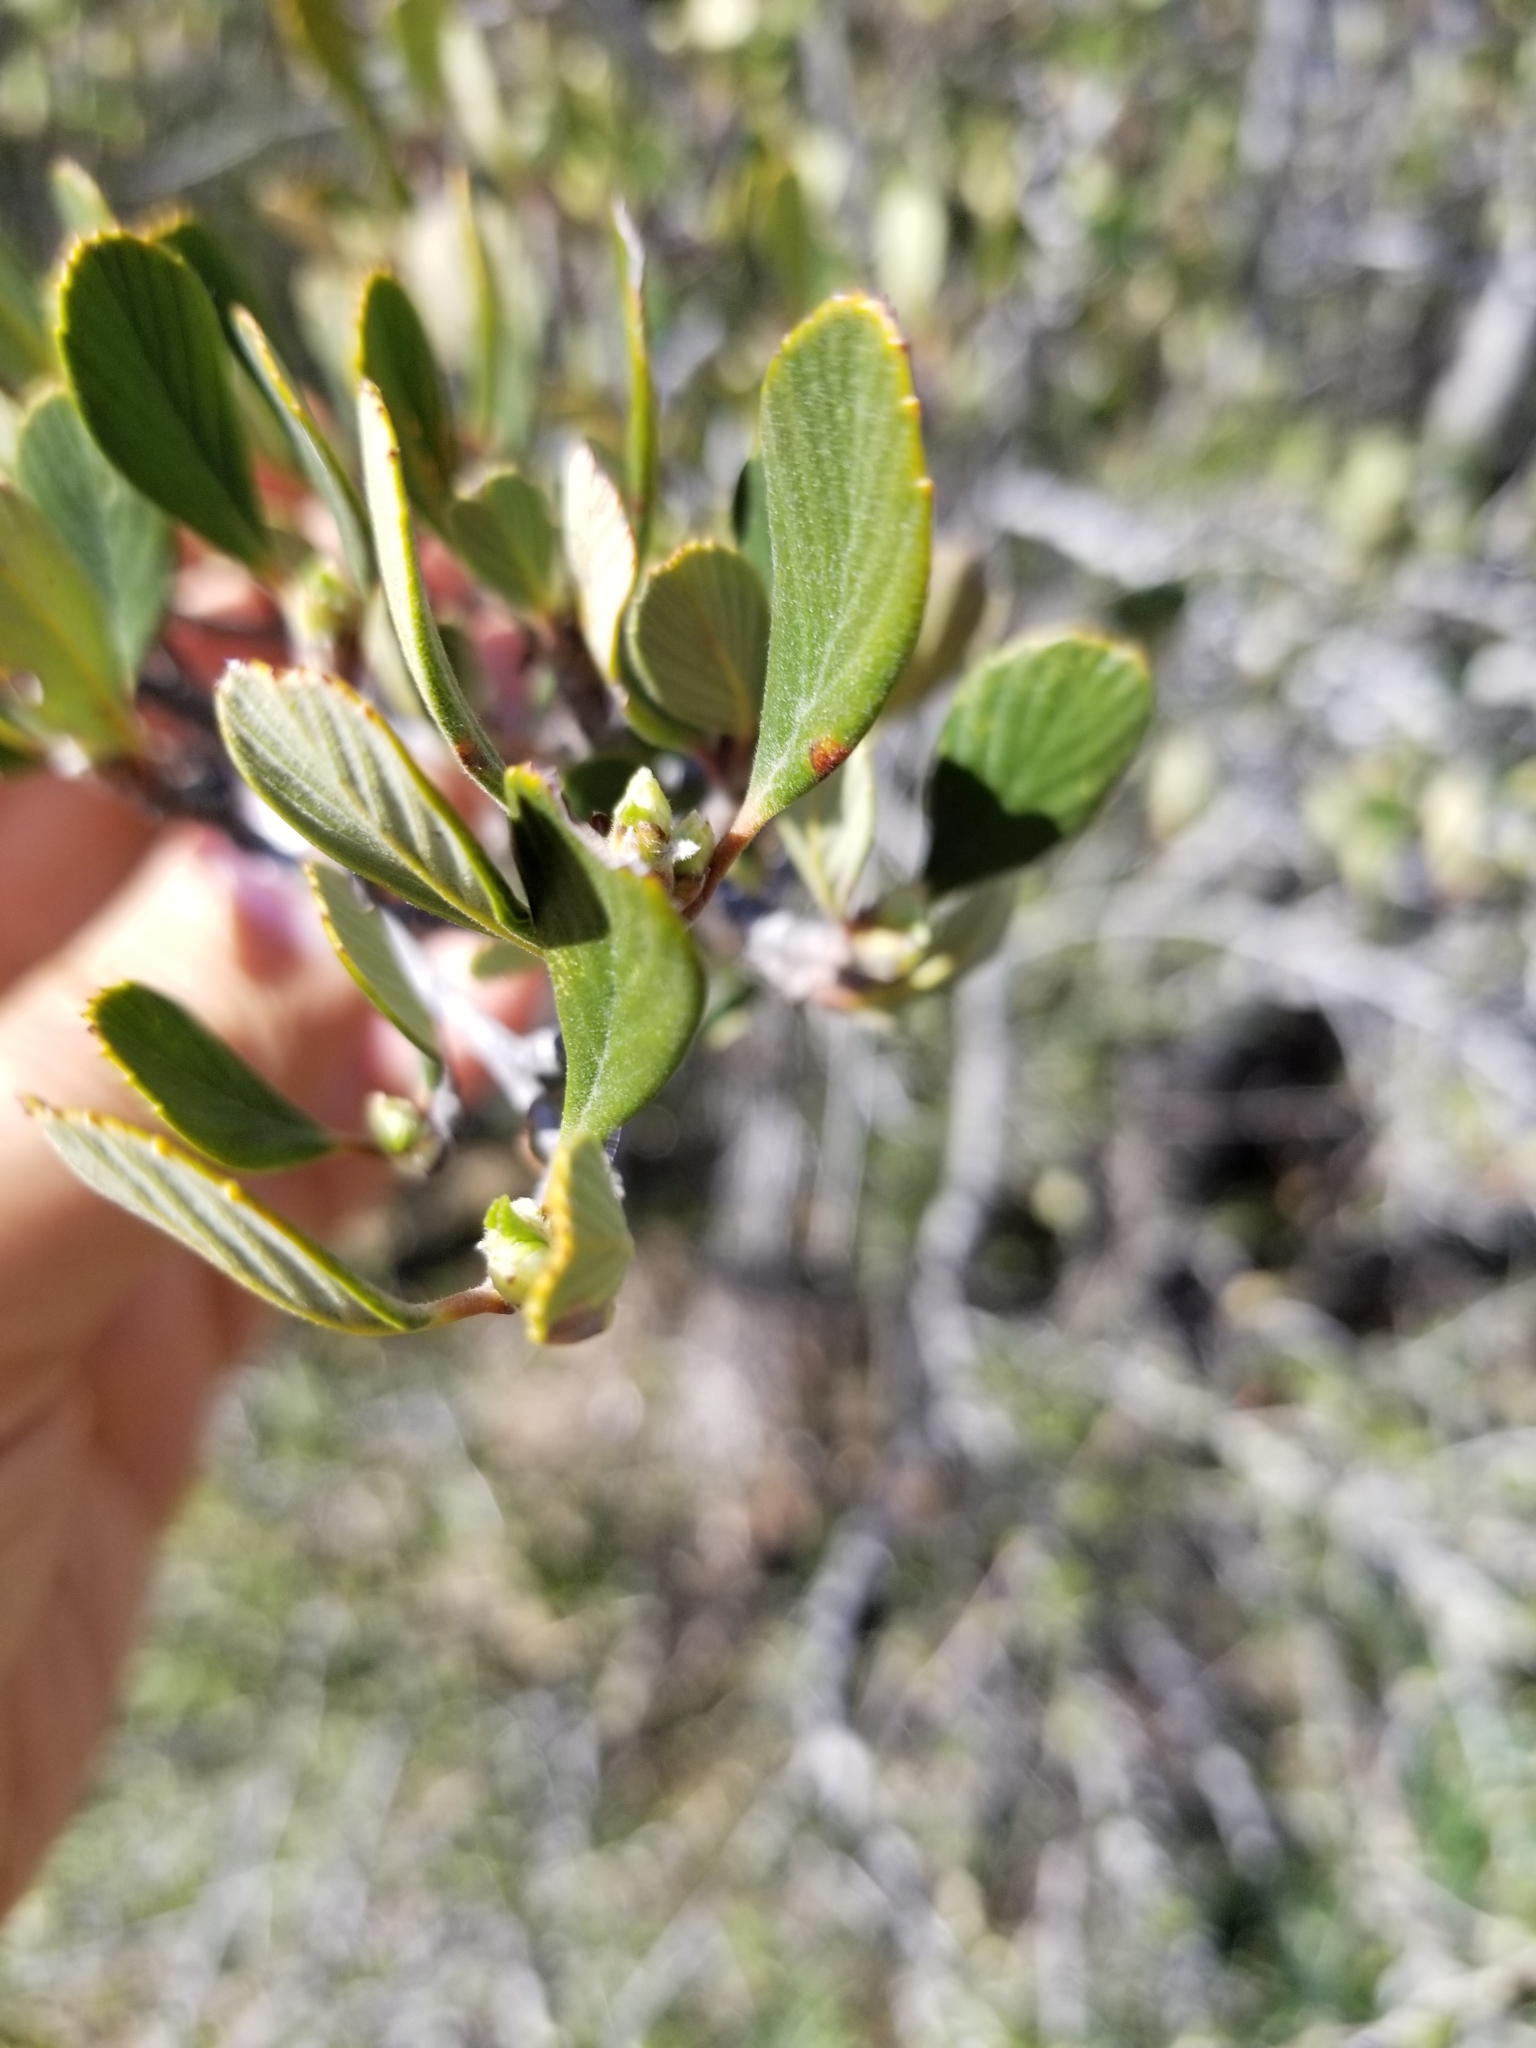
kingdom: Plantae
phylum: Tracheophyta
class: Magnoliopsida
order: Rosales
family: Rosaceae
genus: Cercocarpus
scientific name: Cercocarpus betuloides
